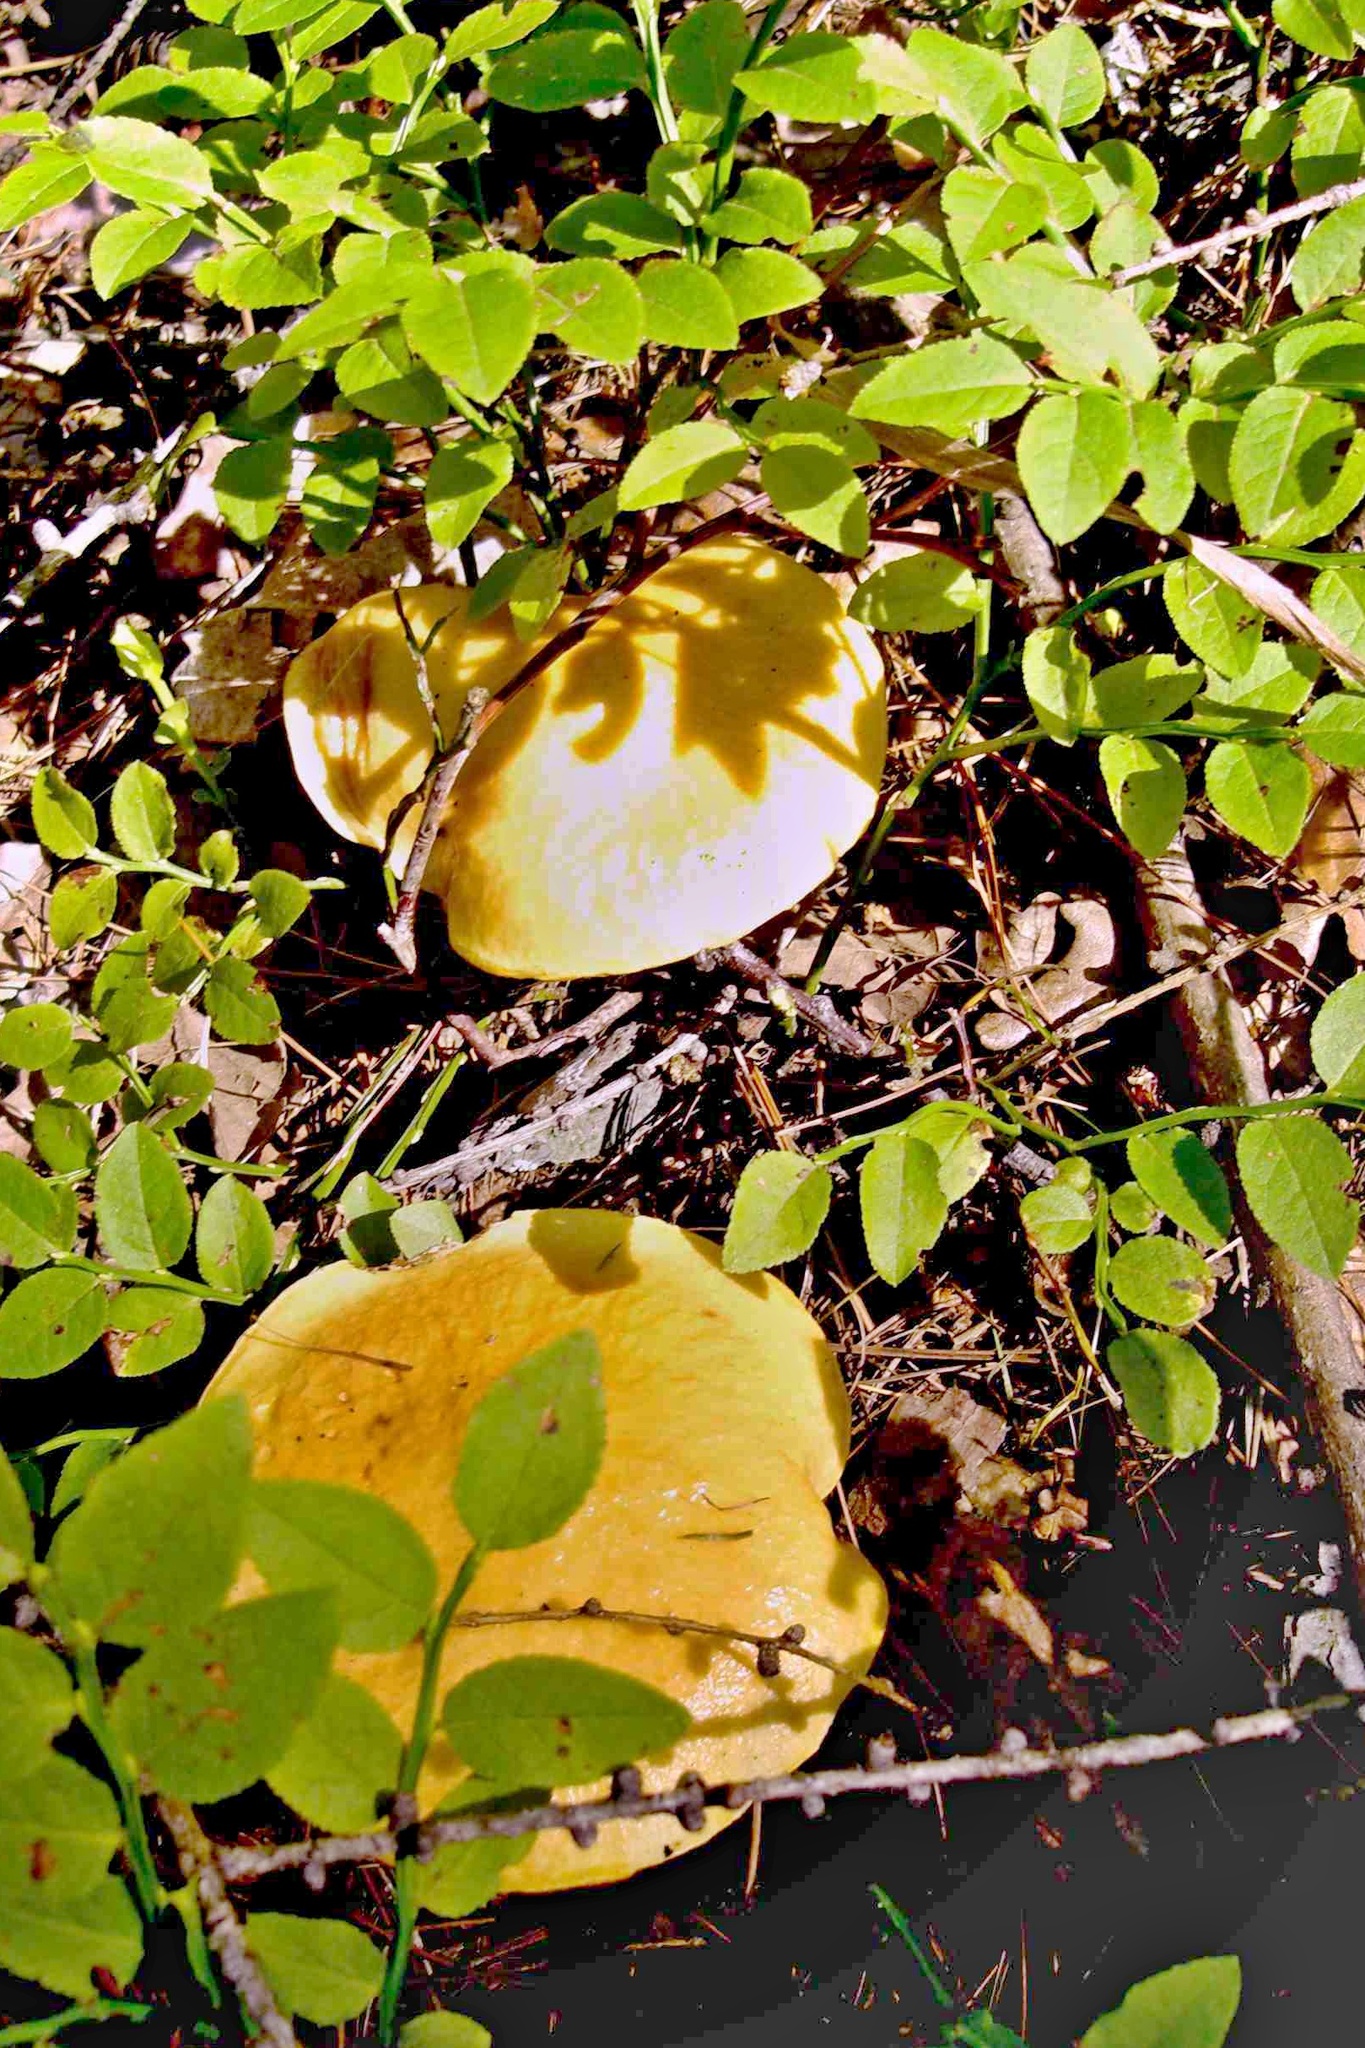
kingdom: Fungi
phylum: Basidiomycota
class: Agaricomycetes
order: Boletales
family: Suillaceae
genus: Suillus
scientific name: Suillus grevillei
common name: Larch bolete
